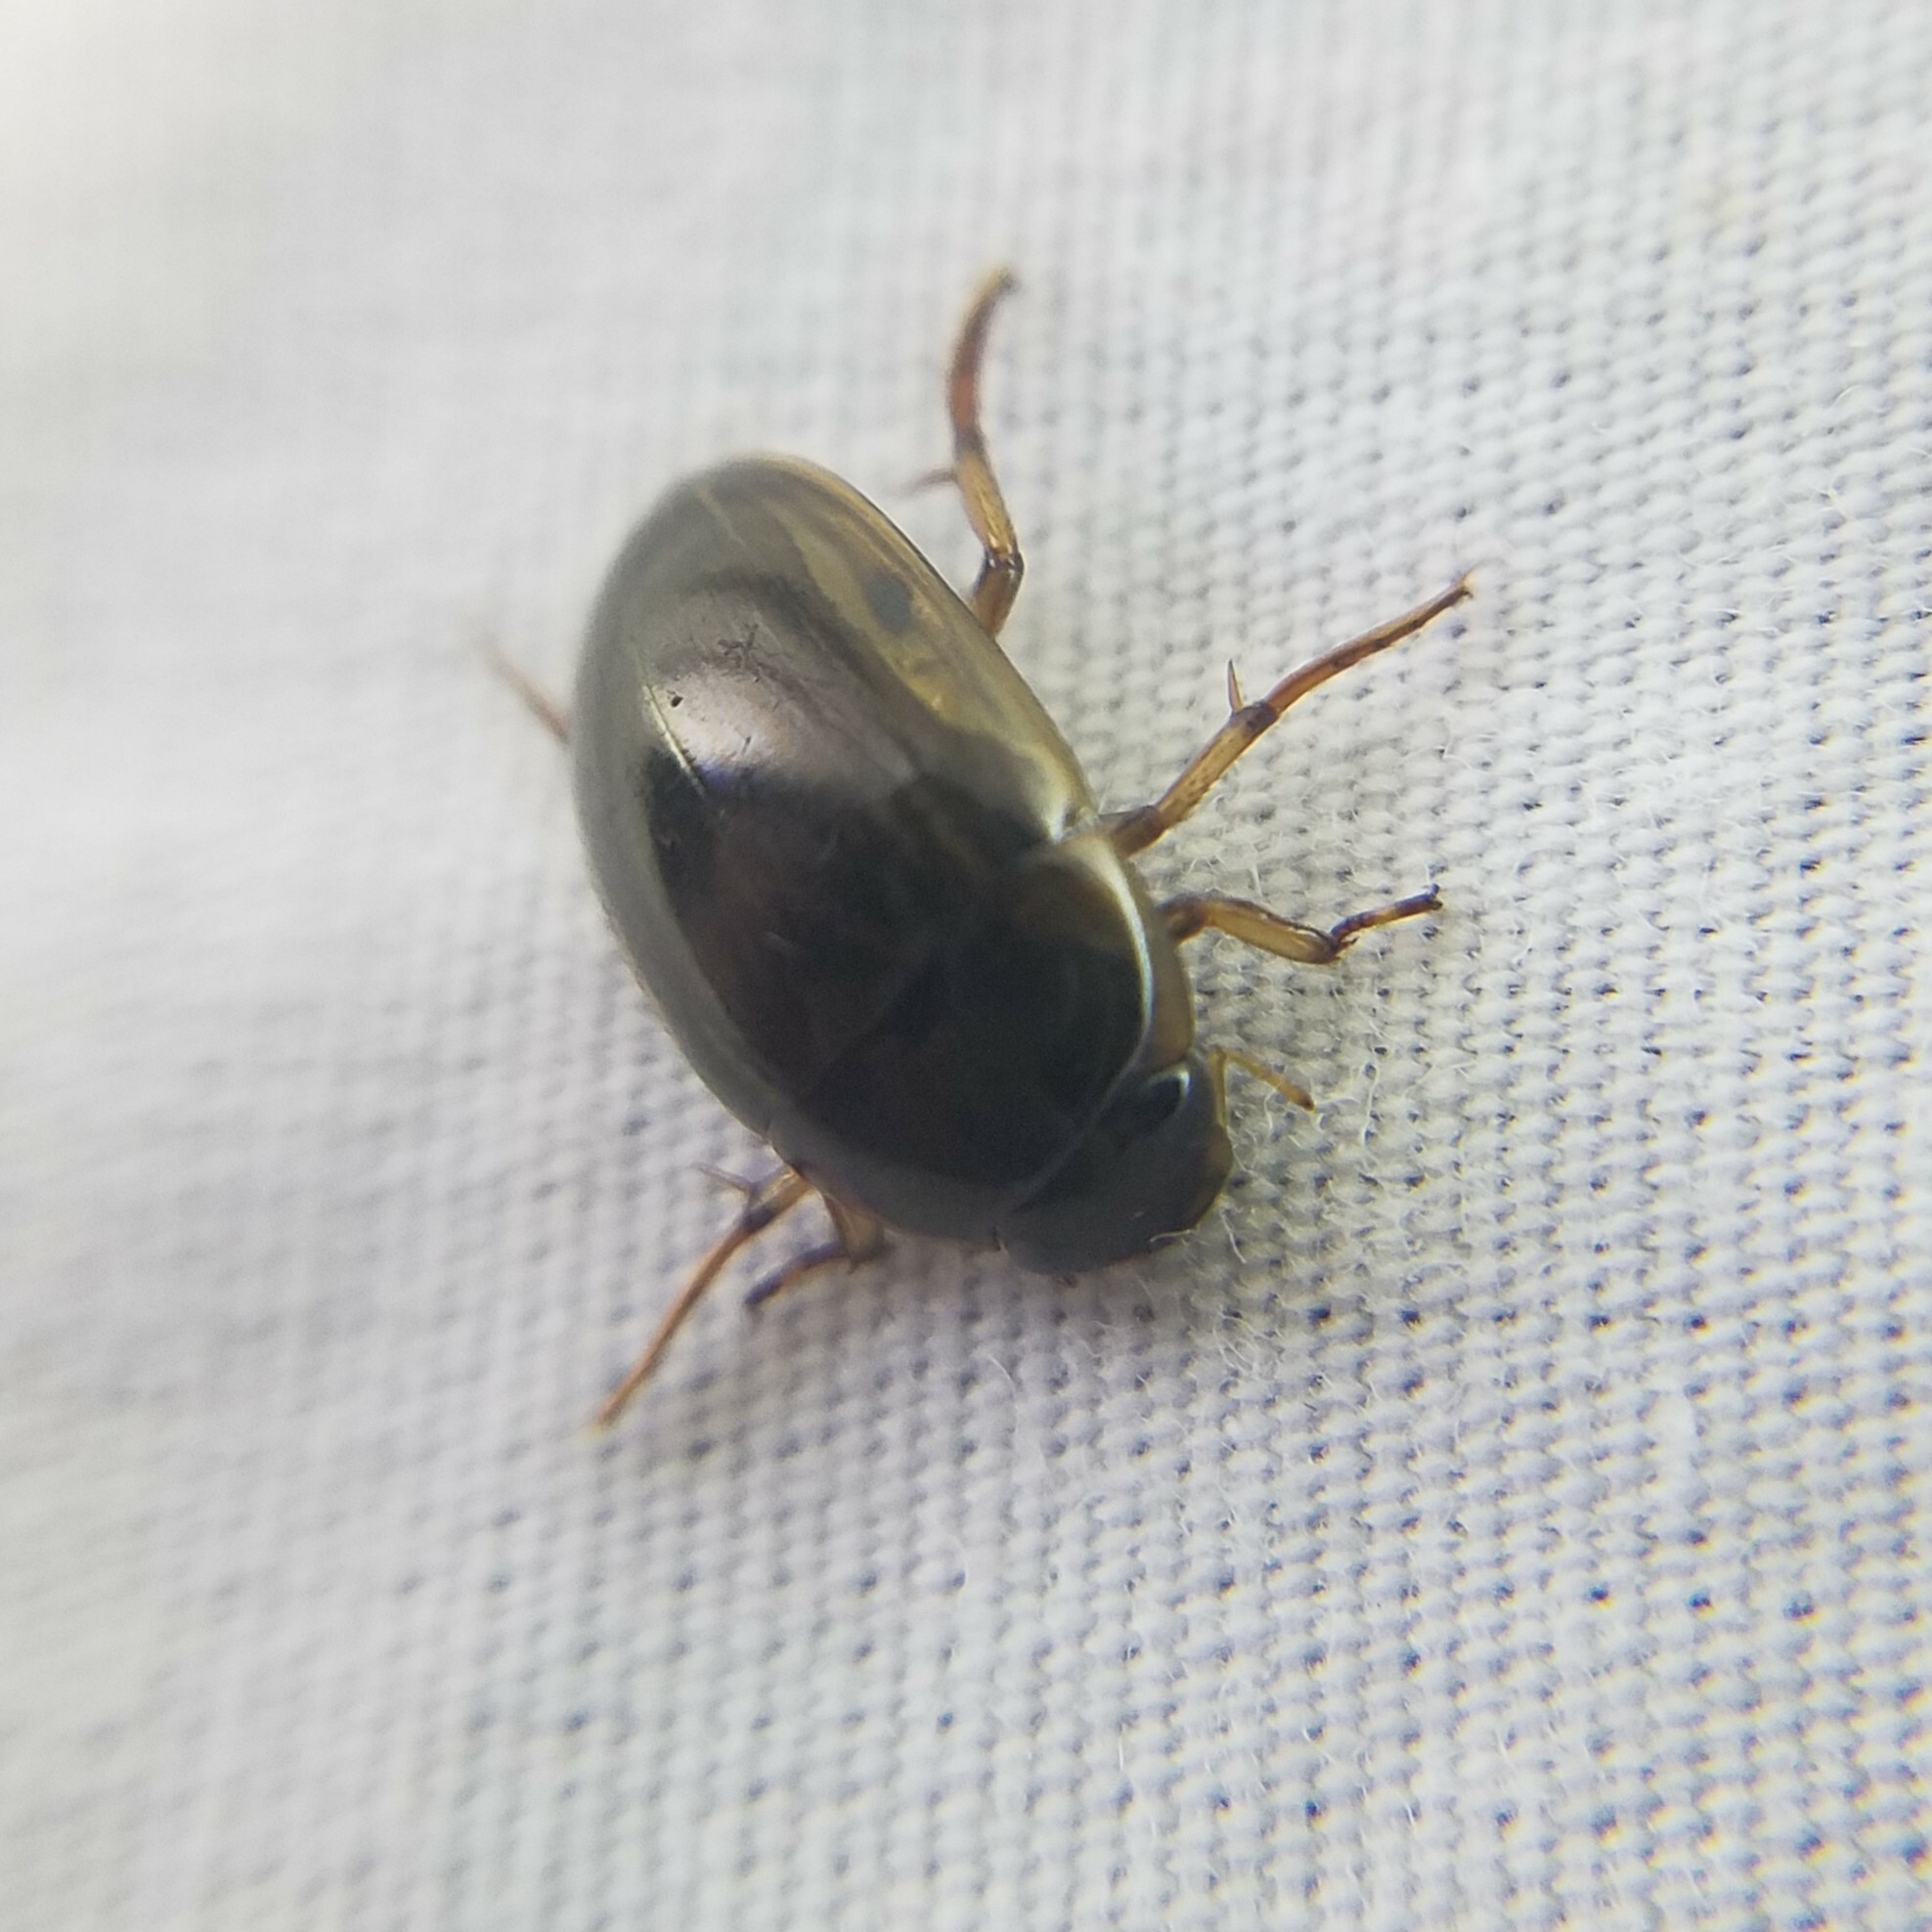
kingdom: Animalia
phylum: Arthropoda
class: Insecta
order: Coleoptera
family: Hydrophilidae
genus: Tropisternus
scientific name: Tropisternus collaris
